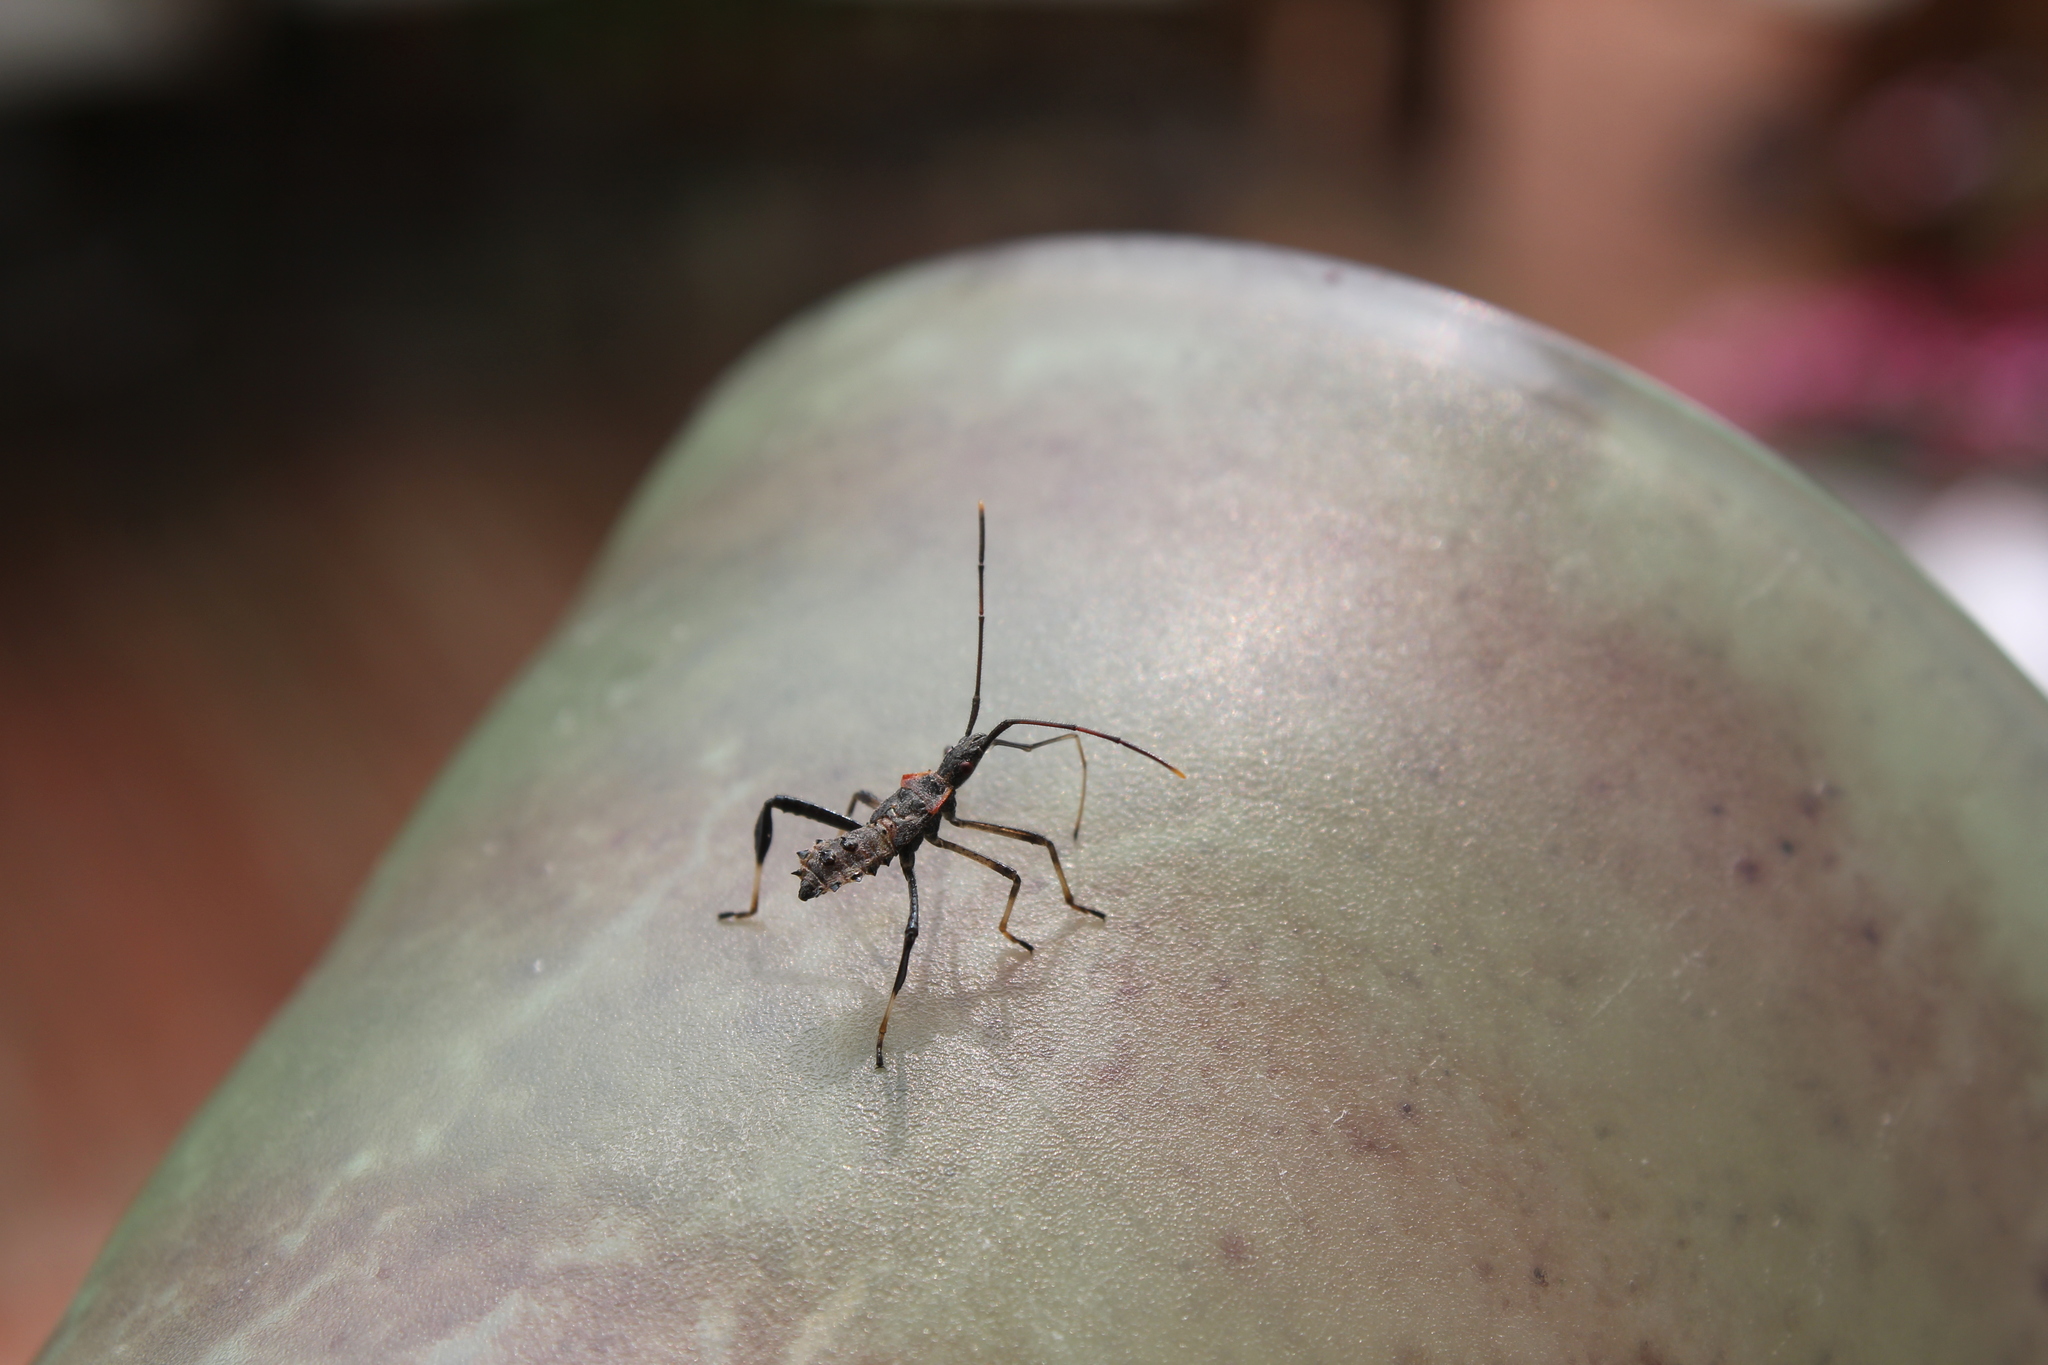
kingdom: Animalia
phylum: Arthropoda
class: Insecta
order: Hemiptera
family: Coreidae
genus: Leptoglossus
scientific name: Leptoglossus fulvicornis
